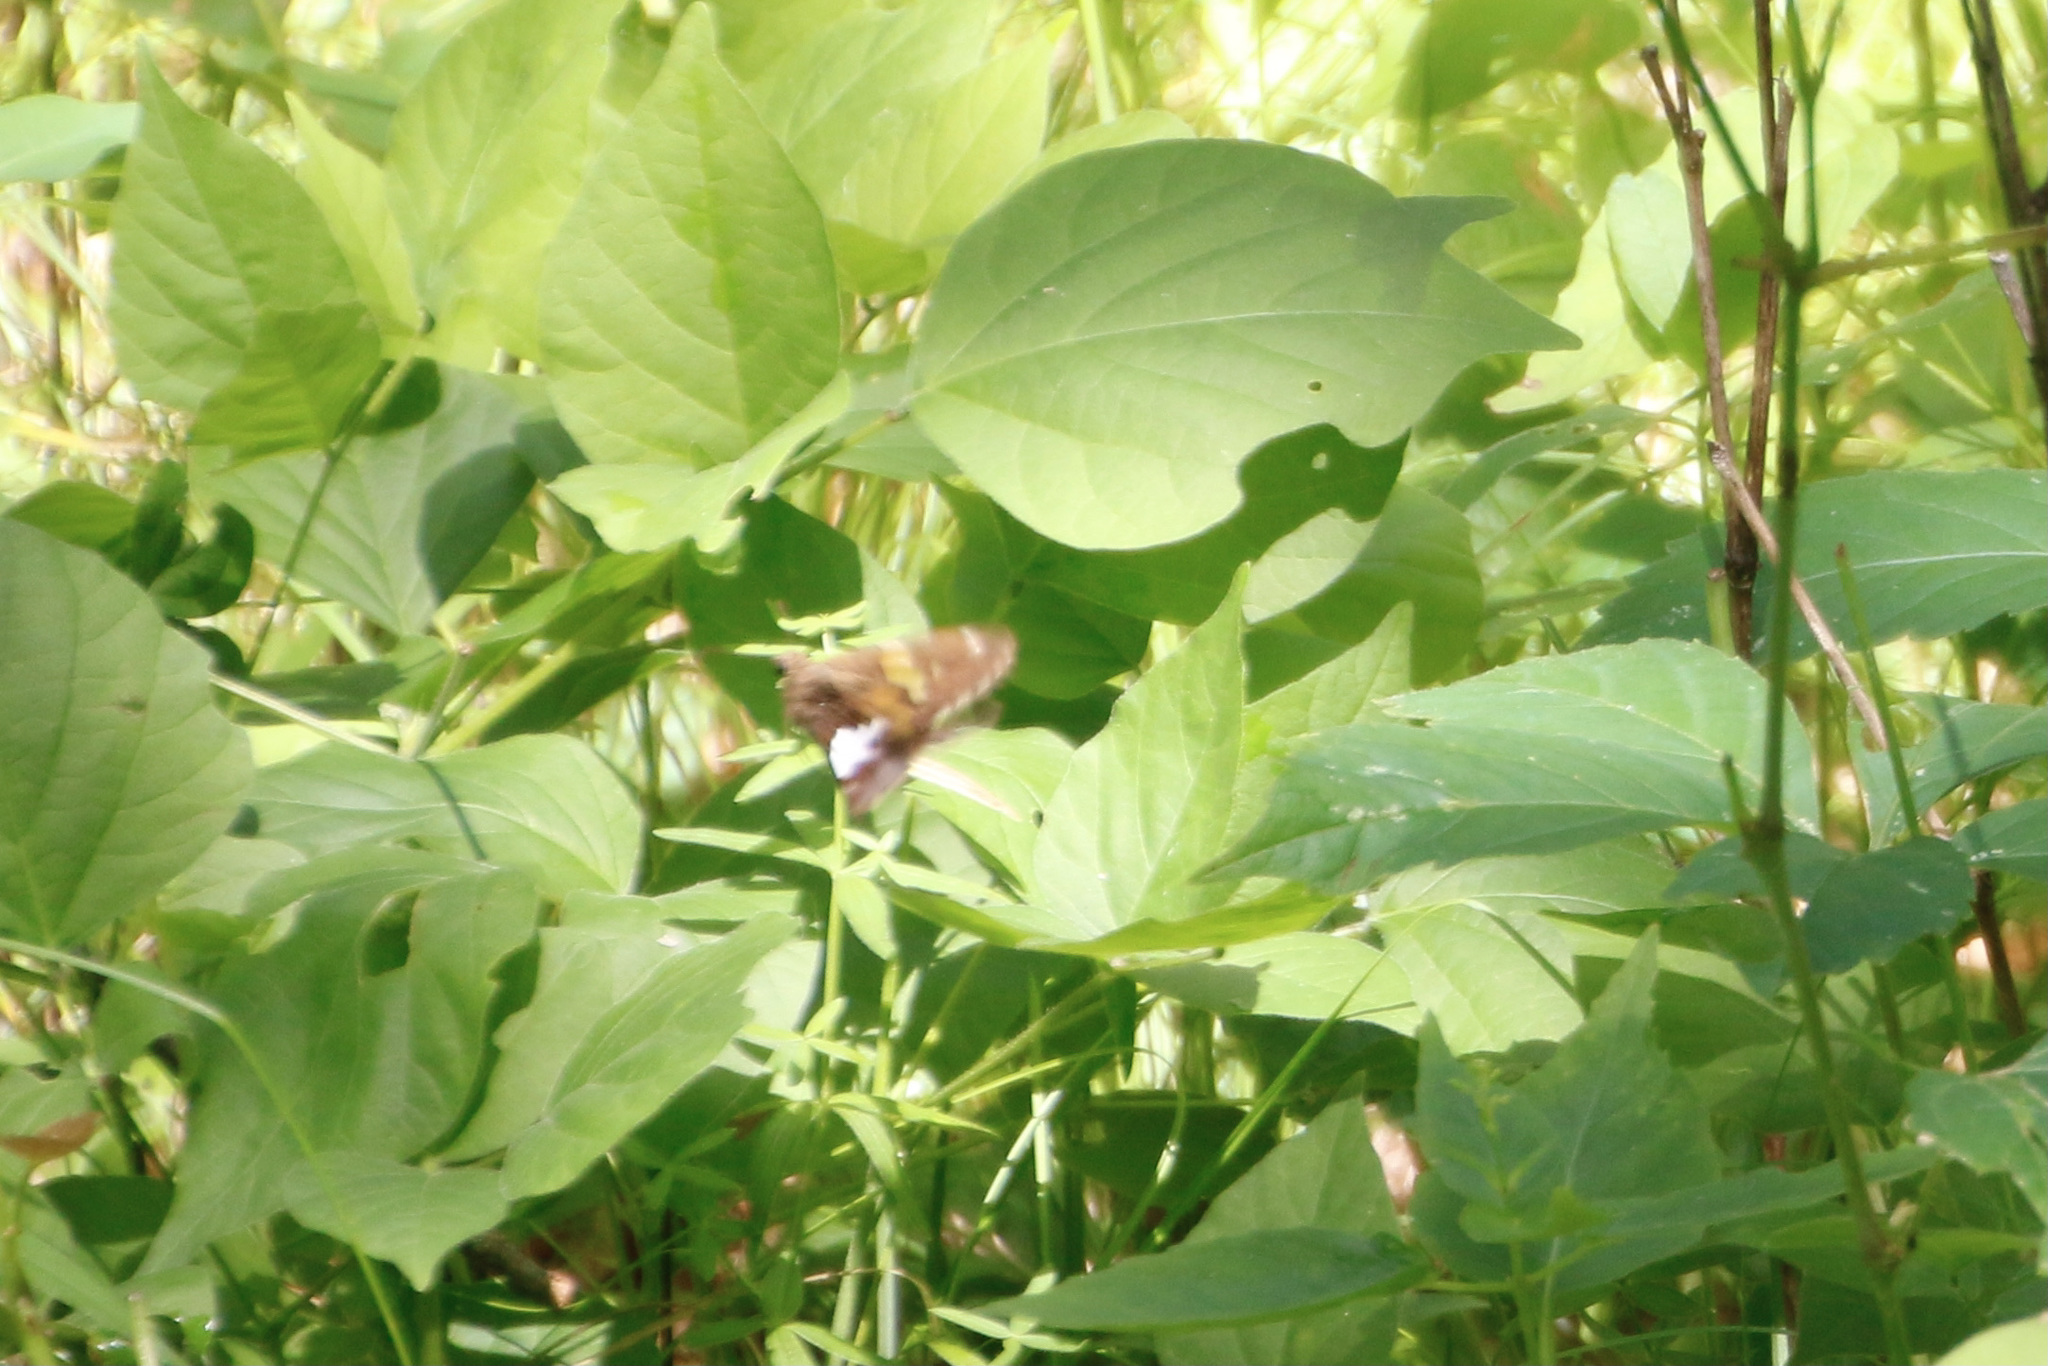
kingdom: Animalia
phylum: Arthropoda
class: Insecta
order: Lepidoptera
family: Hesperiidae
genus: Epargyreus
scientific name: Epargyreus clarus
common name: Silver-spotted skipper
